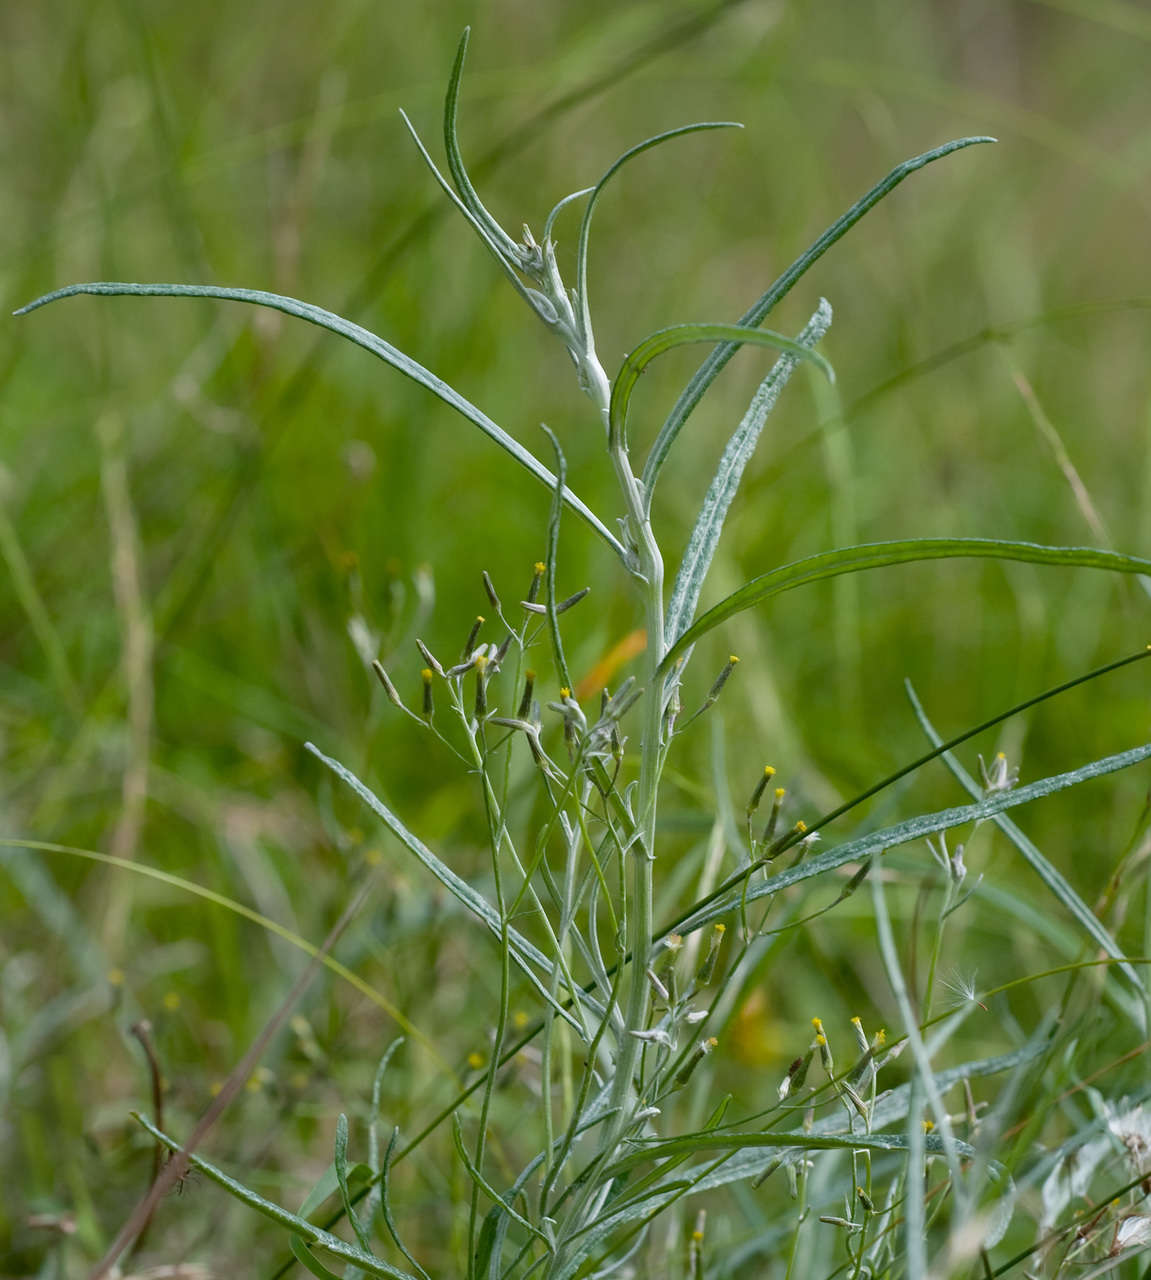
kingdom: Plantae
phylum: Tracheophyta
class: Magnoliopsida
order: Asterales
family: Asteraceae
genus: Senecio
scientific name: Senecio quadridentatus
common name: Cotton fireweed
